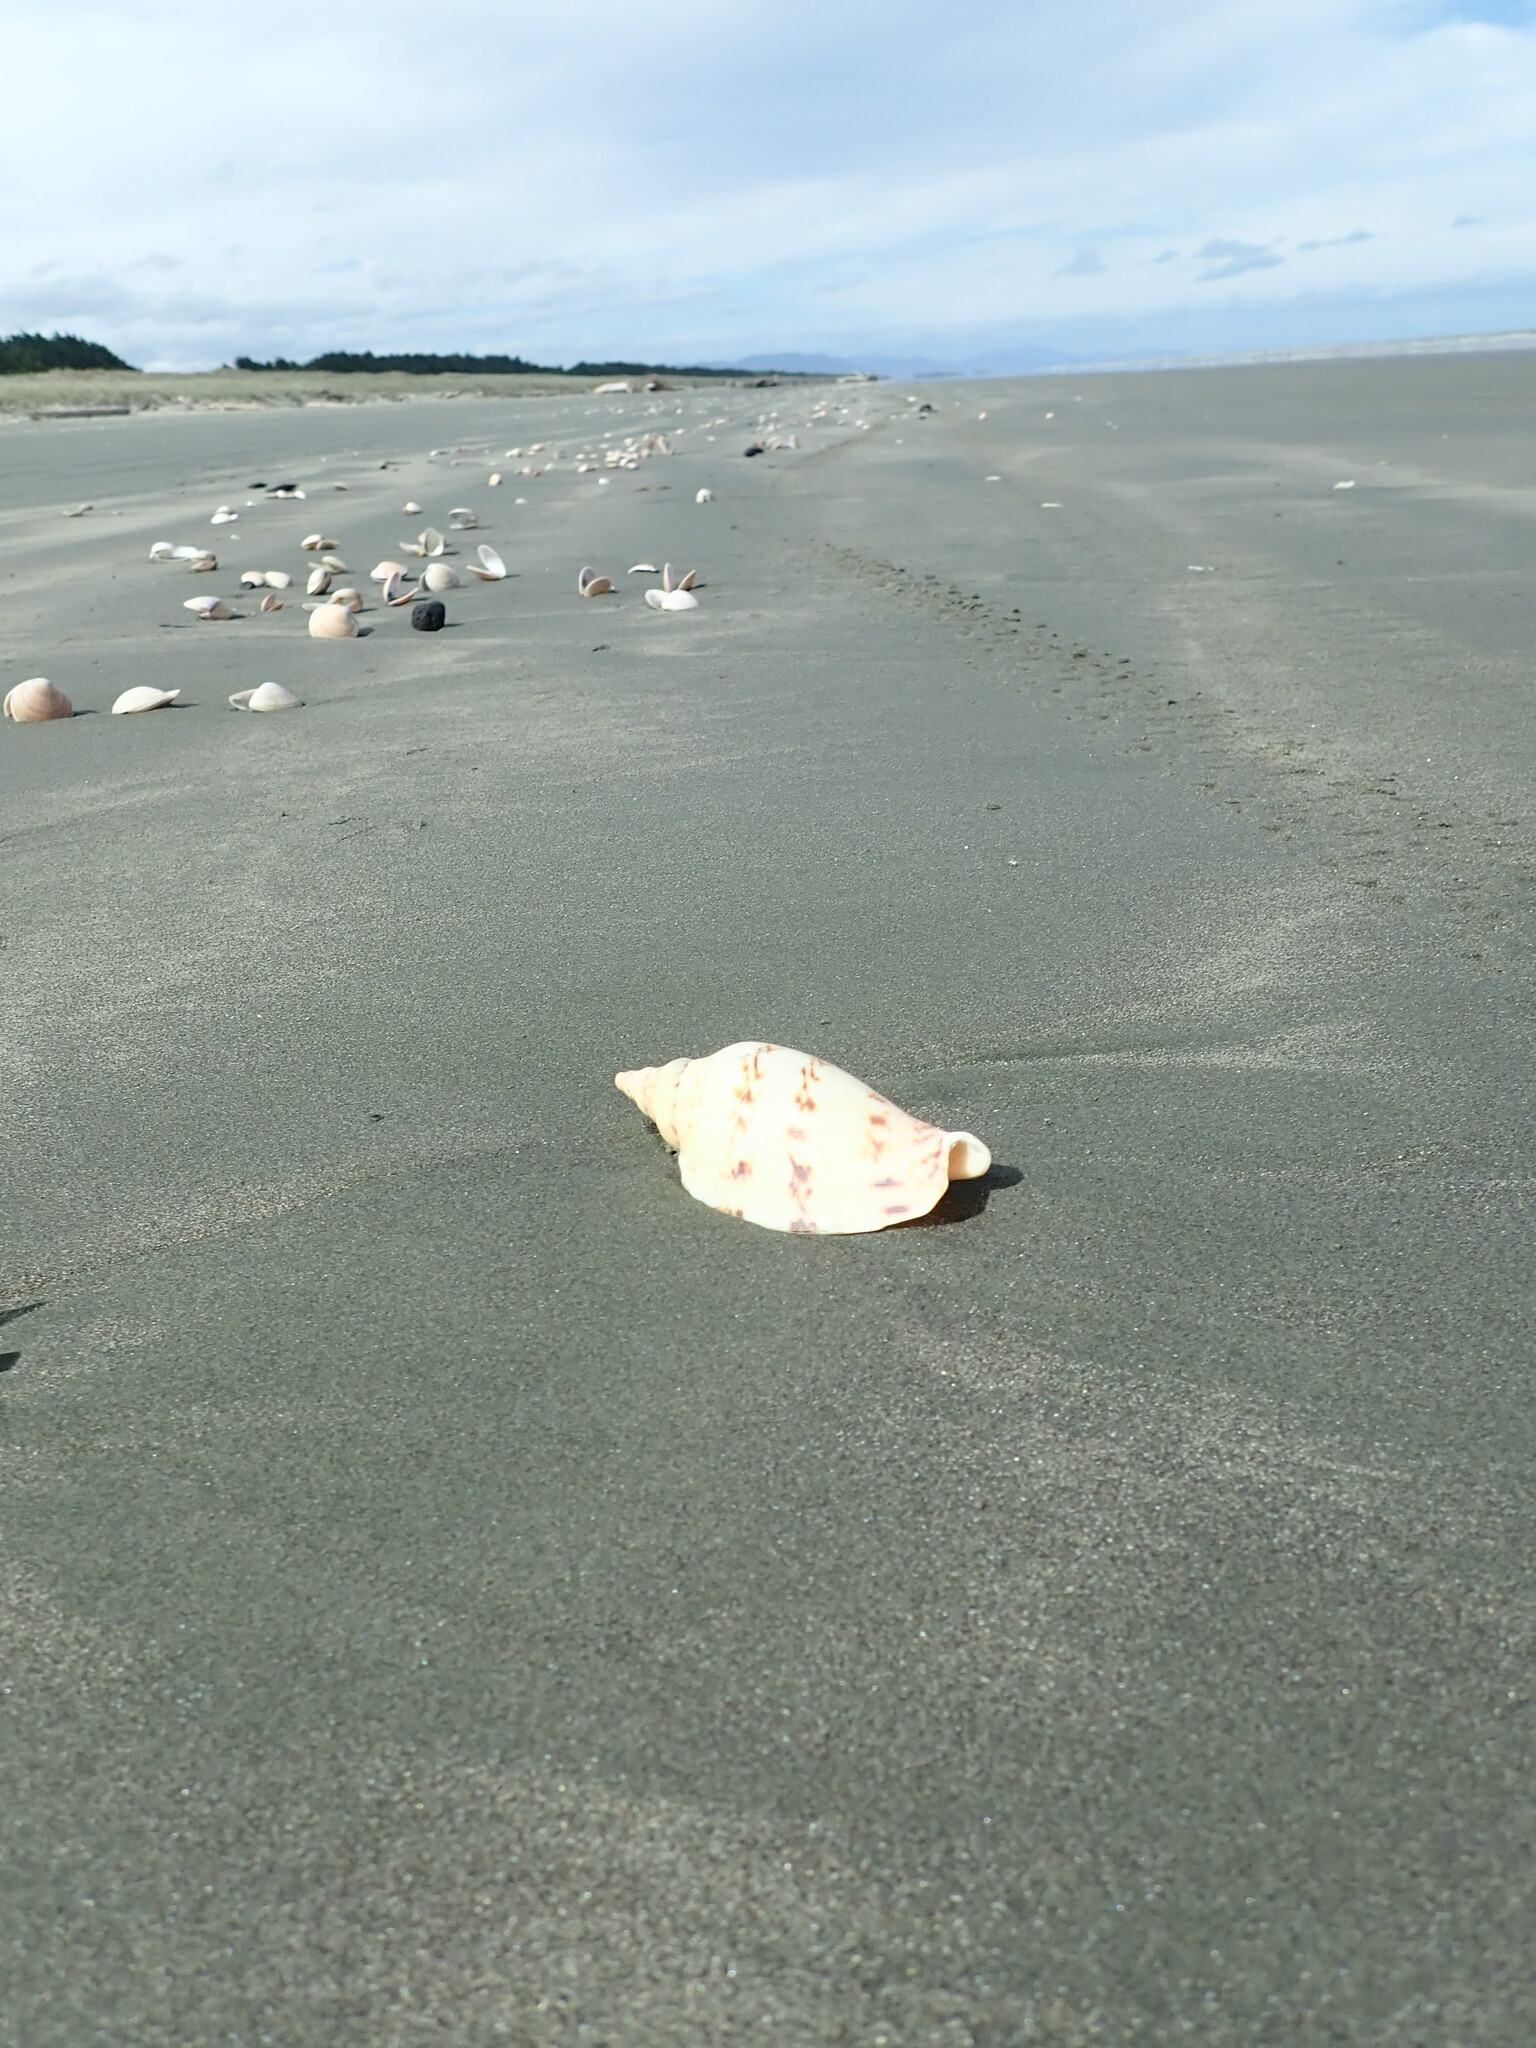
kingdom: Animalia
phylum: Mollusca
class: Gastropoda
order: Neogastropoda
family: Volutidae
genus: Alcithoe
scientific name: Alcithoe arabica
